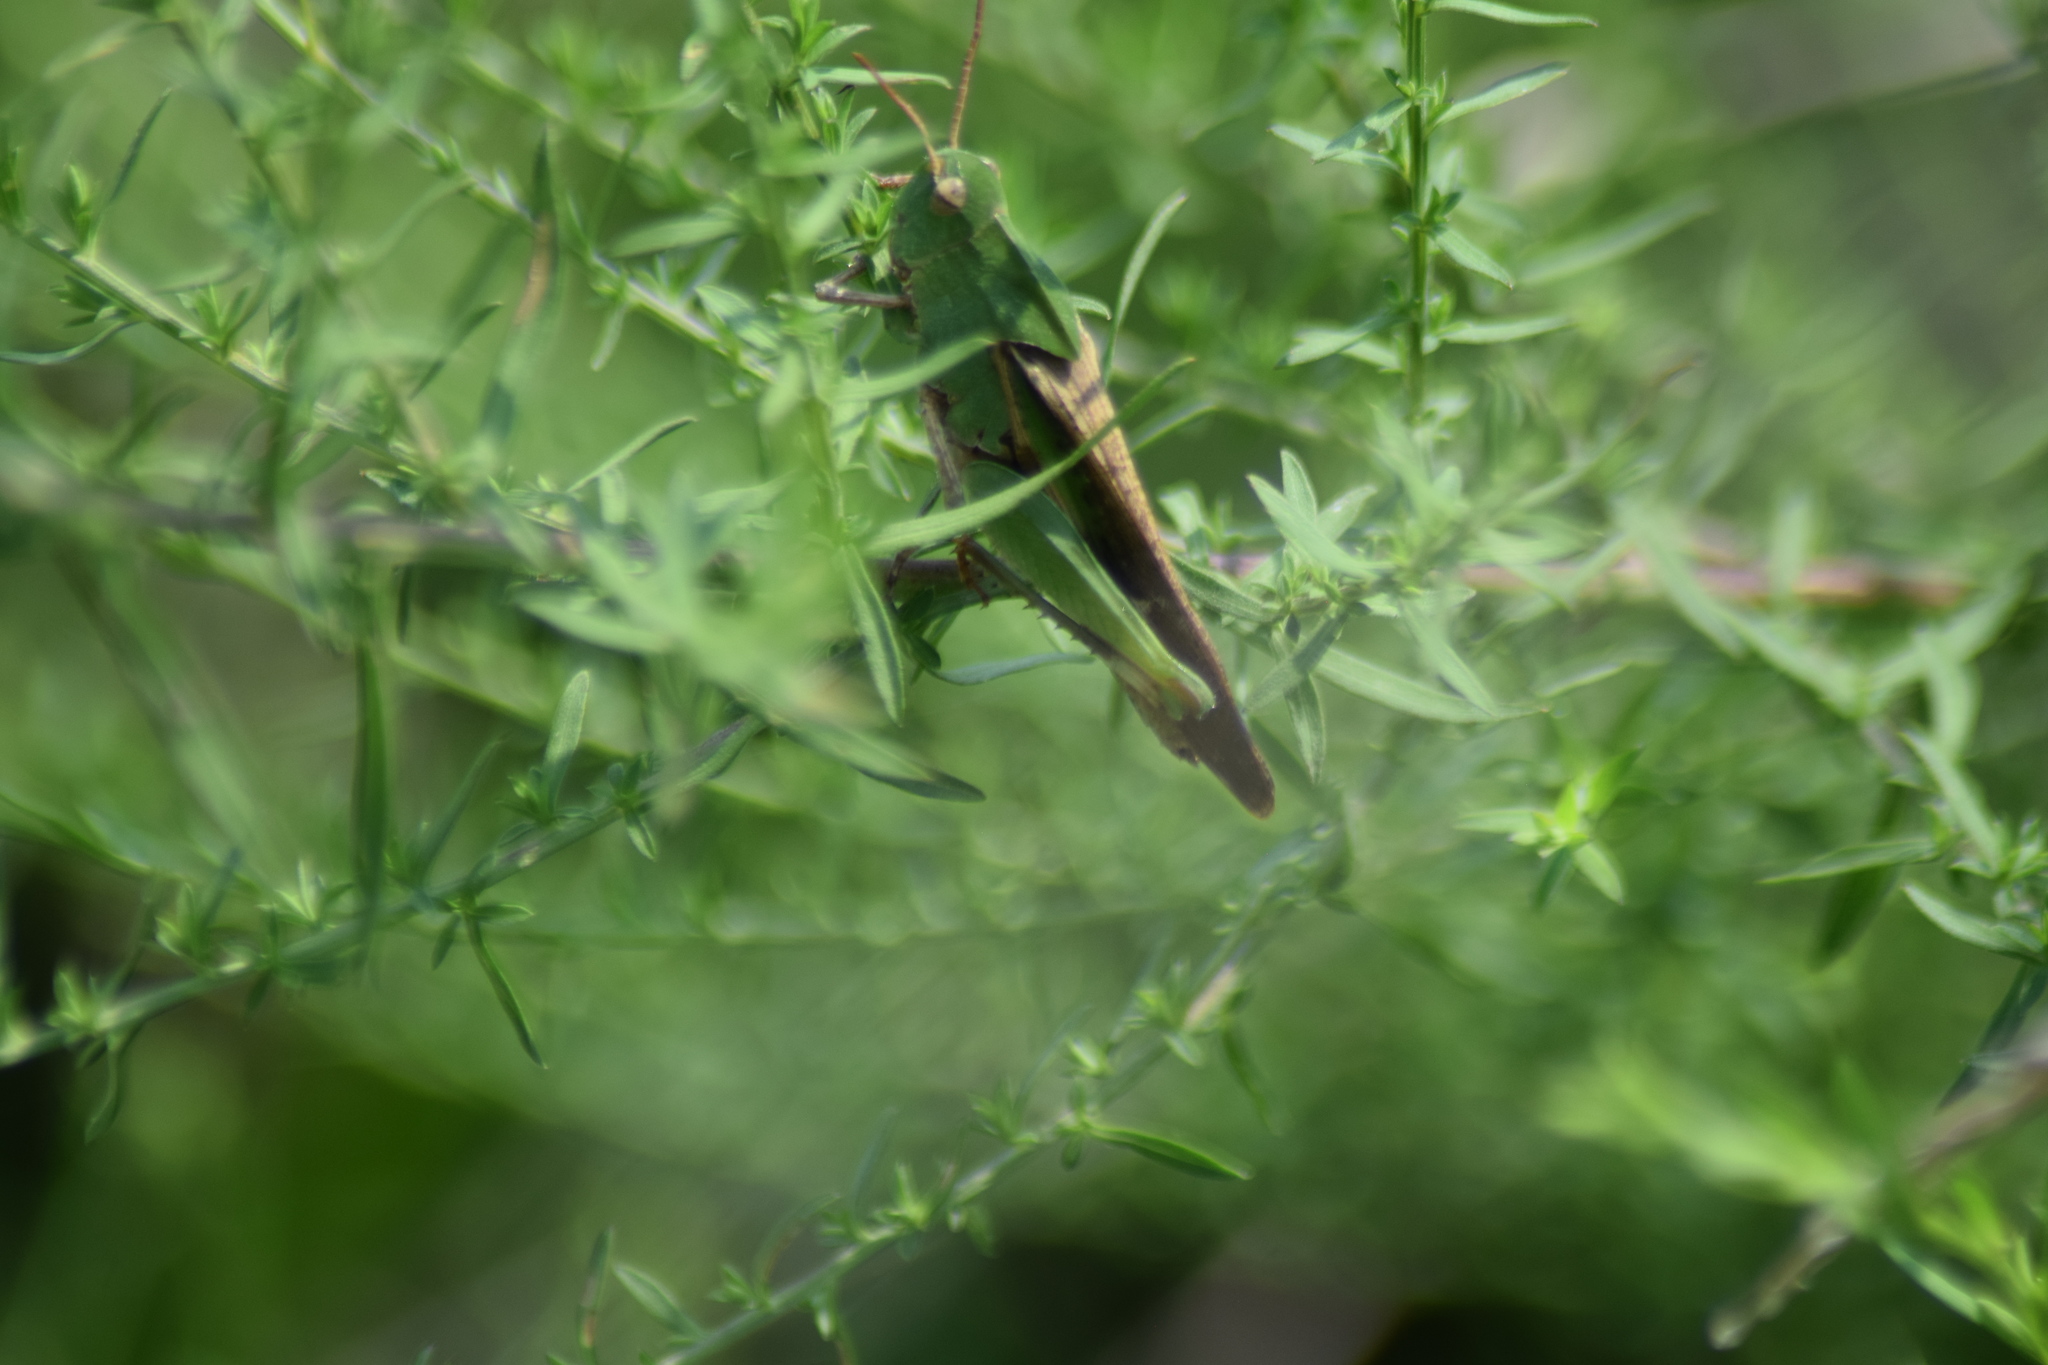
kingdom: Animalia
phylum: Arthropoda
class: Insecta
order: Orthoptera
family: Acrididae
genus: Chortophaga
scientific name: Chortophaga viridifasciata
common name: Green-striped grasshopper
